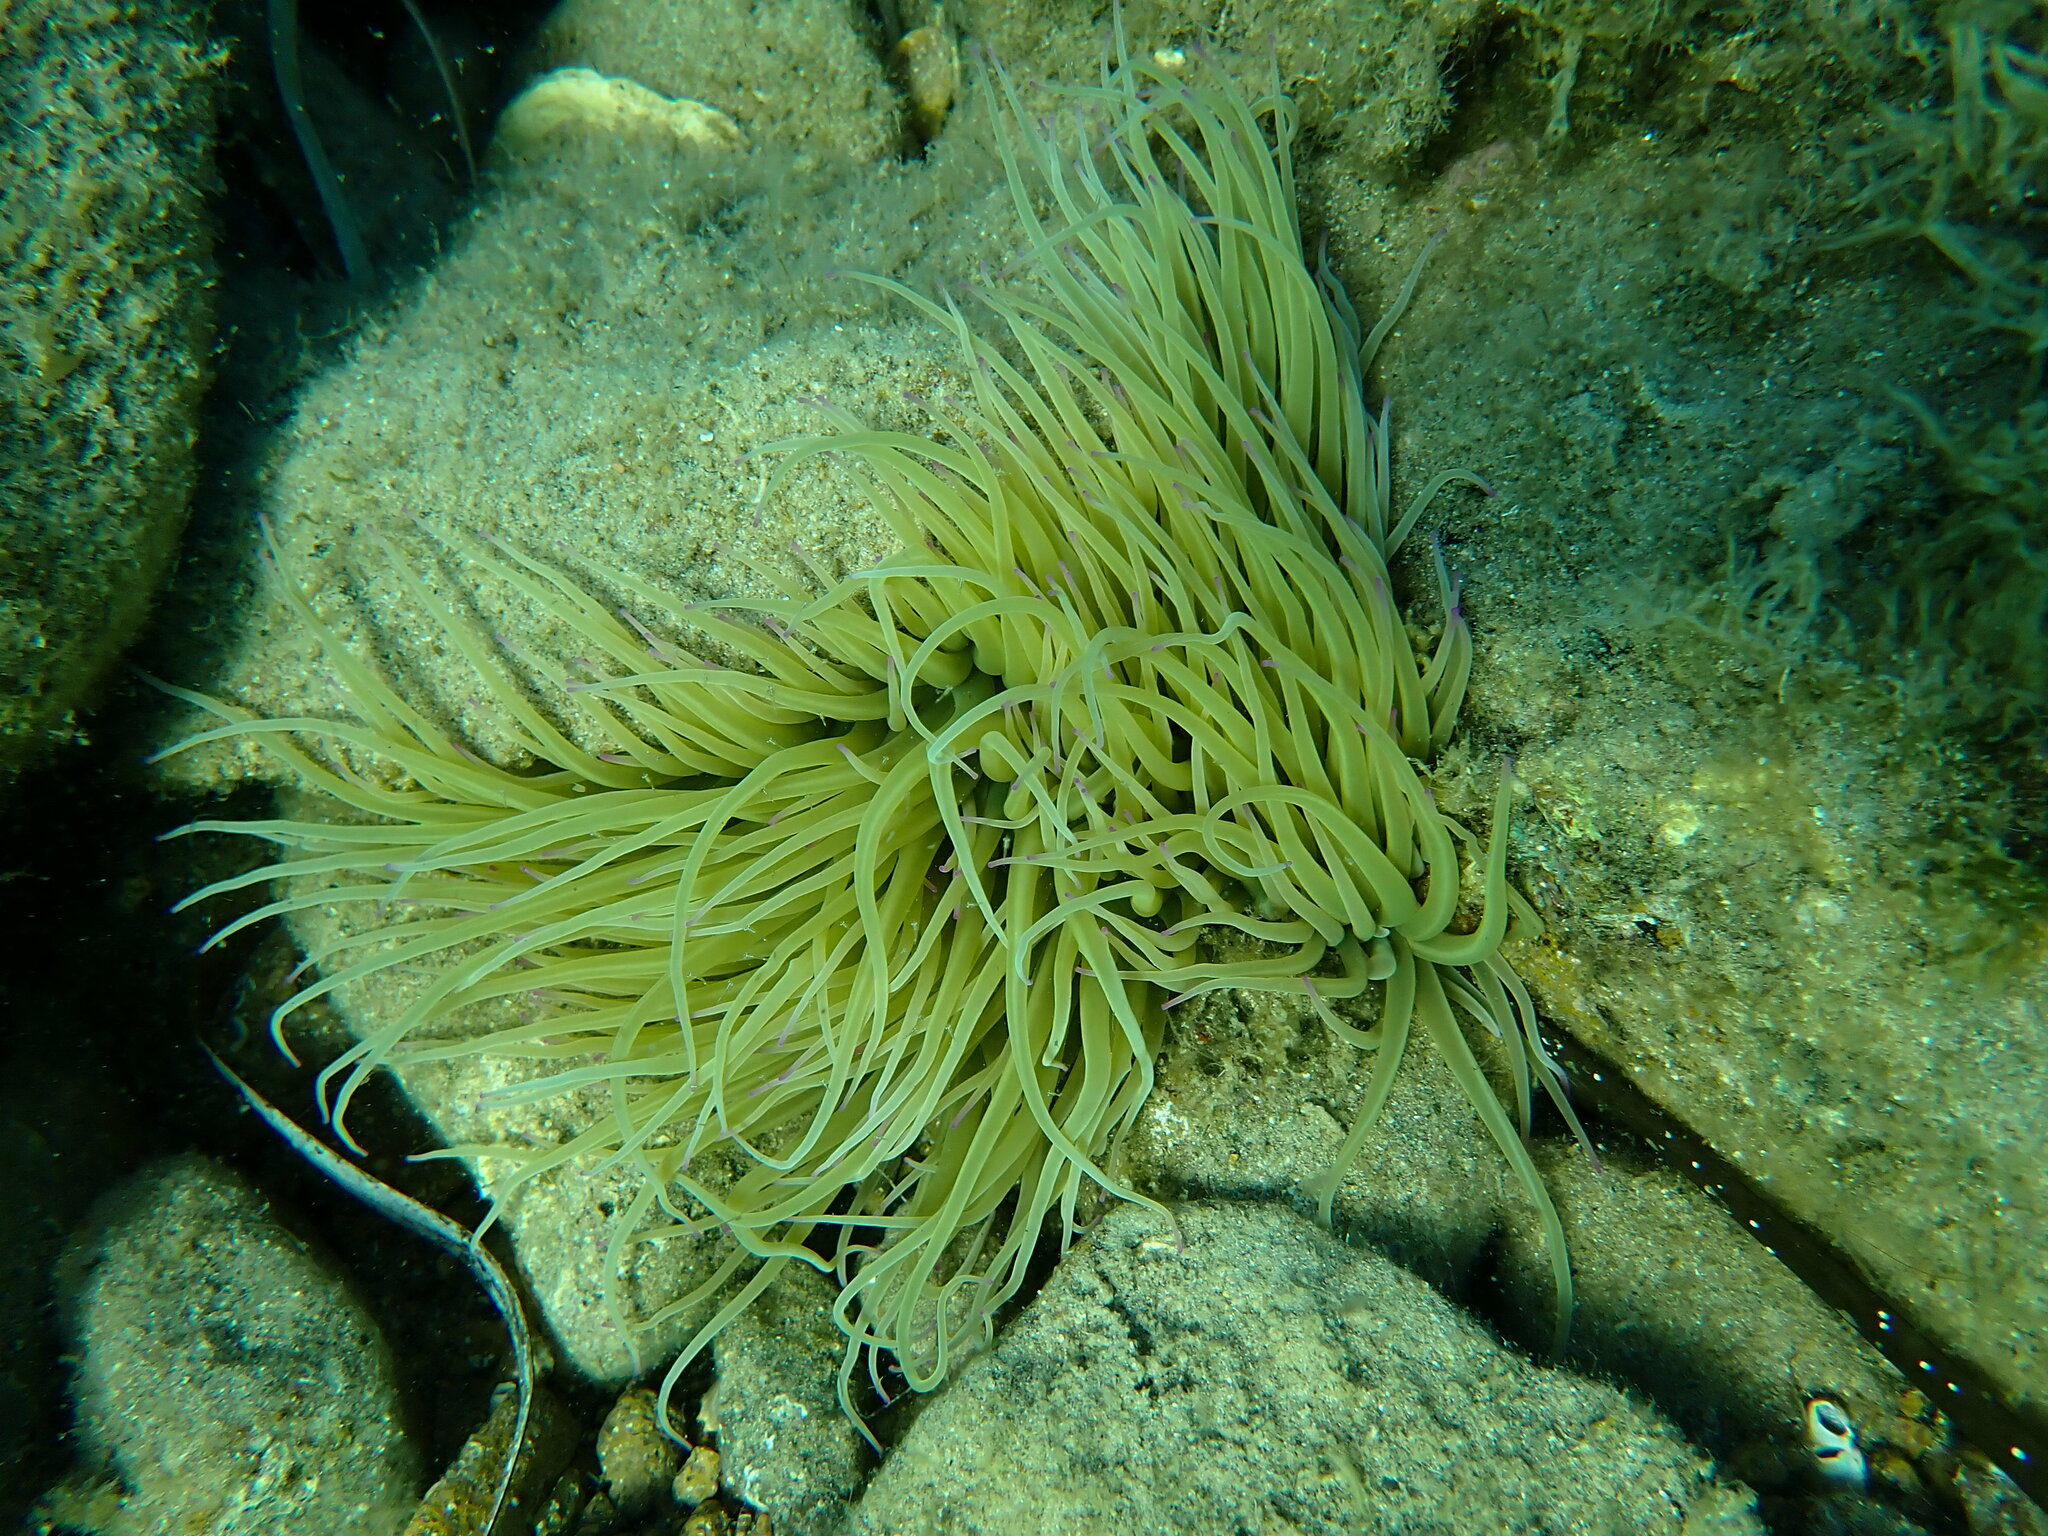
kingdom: Animalia
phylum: Cnidaria
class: Anthozoa
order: Actiniaria
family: Actiniidae
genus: Anemonia
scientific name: Anemonia viridis
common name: Snakelocks anemone
